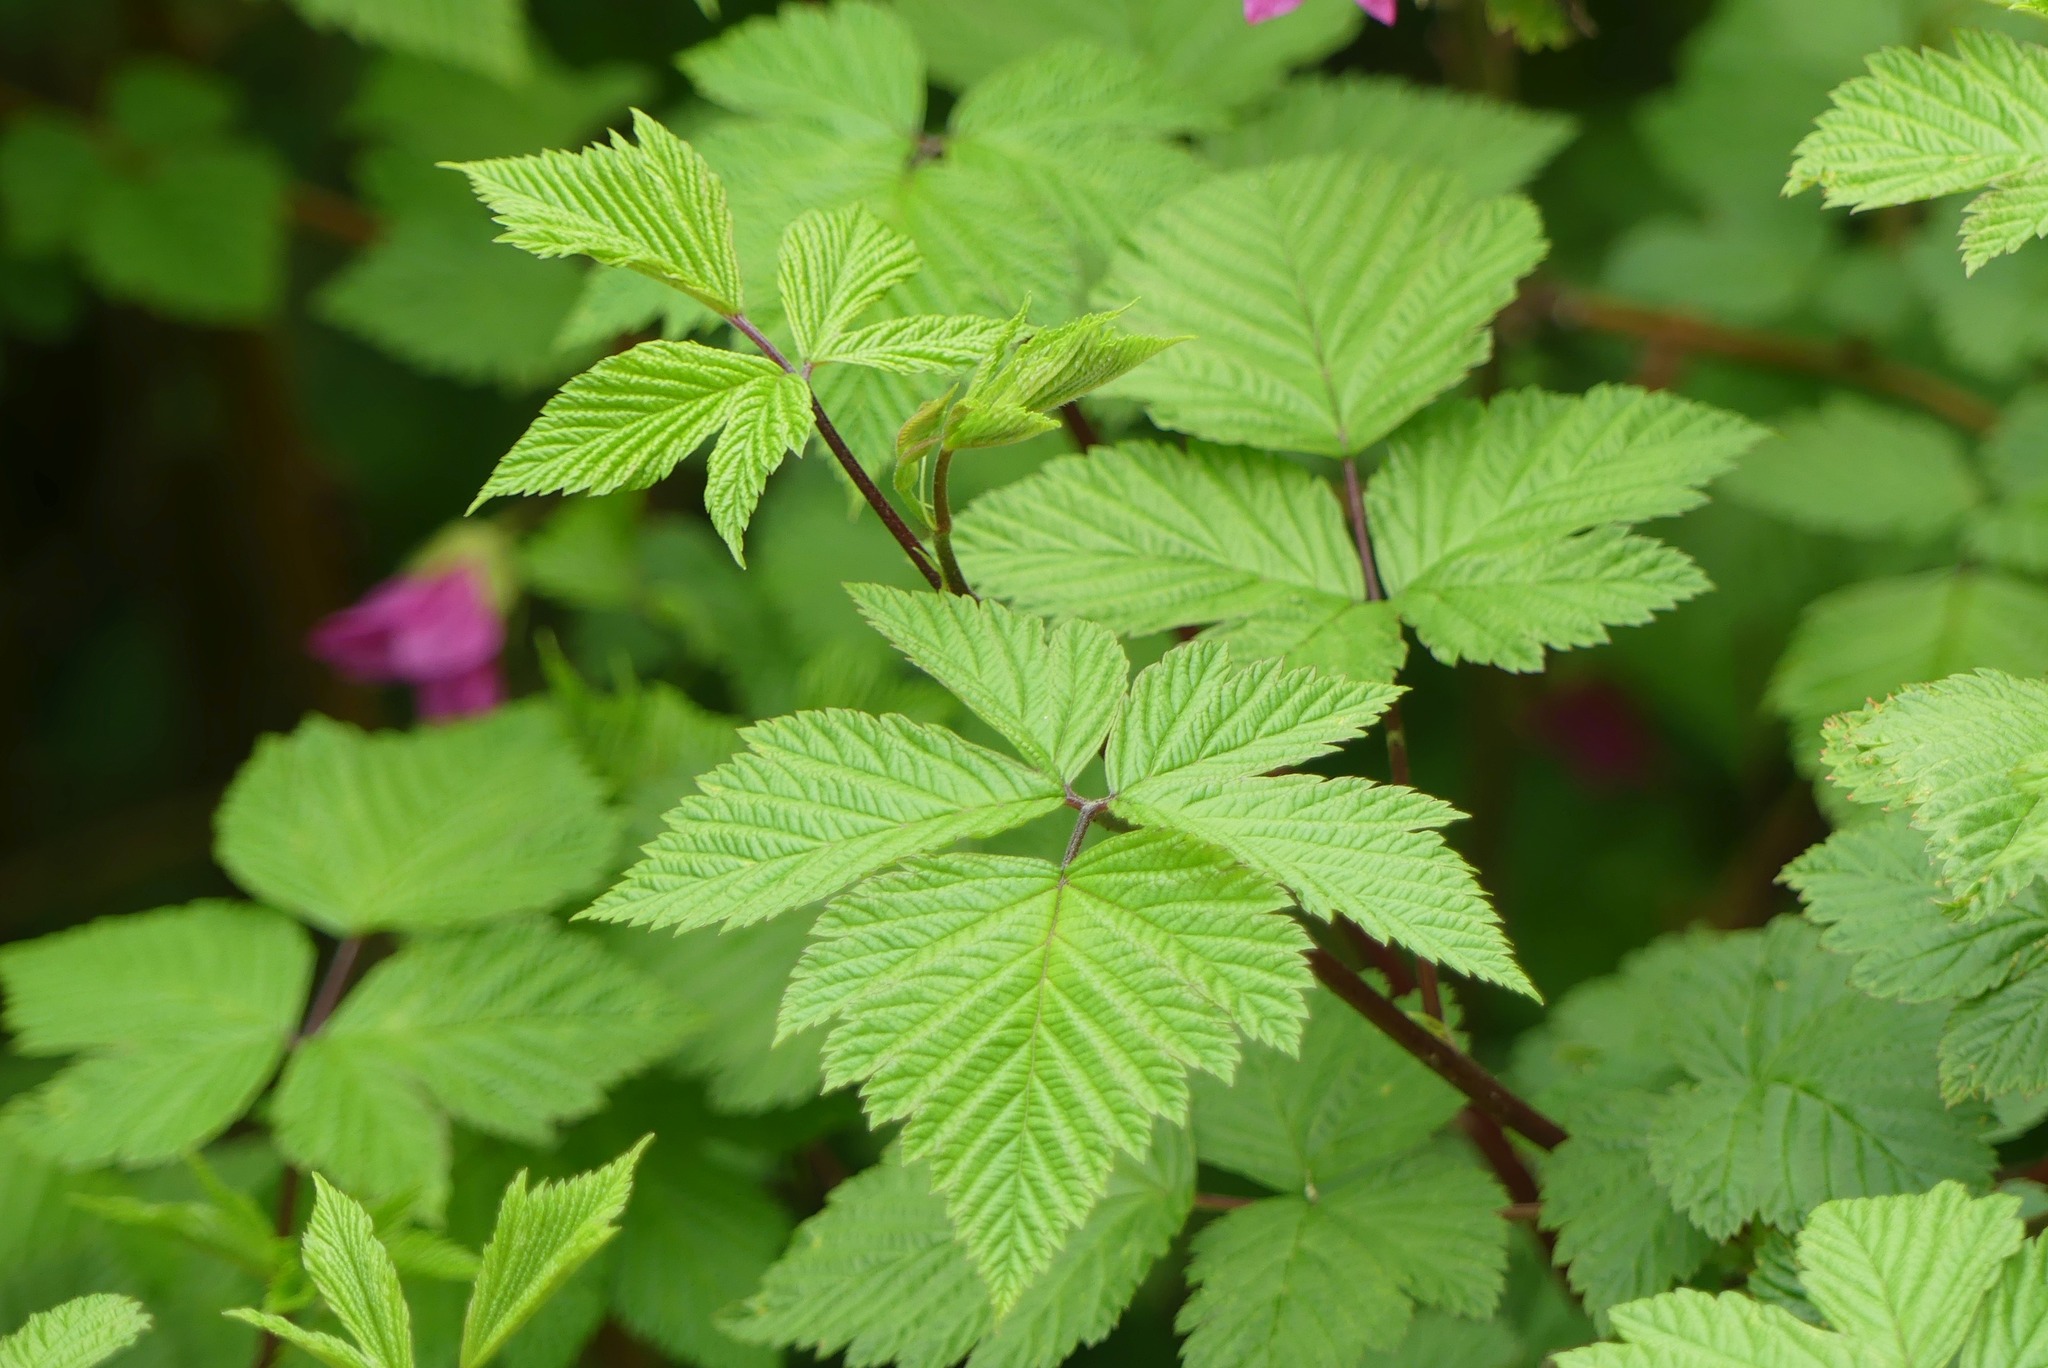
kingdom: Plantae
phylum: Tracheophyta
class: Magnoliopsida
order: Rosales
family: Rosaceae
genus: Rubus
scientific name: Rubus spectabilis
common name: Salmonberry
